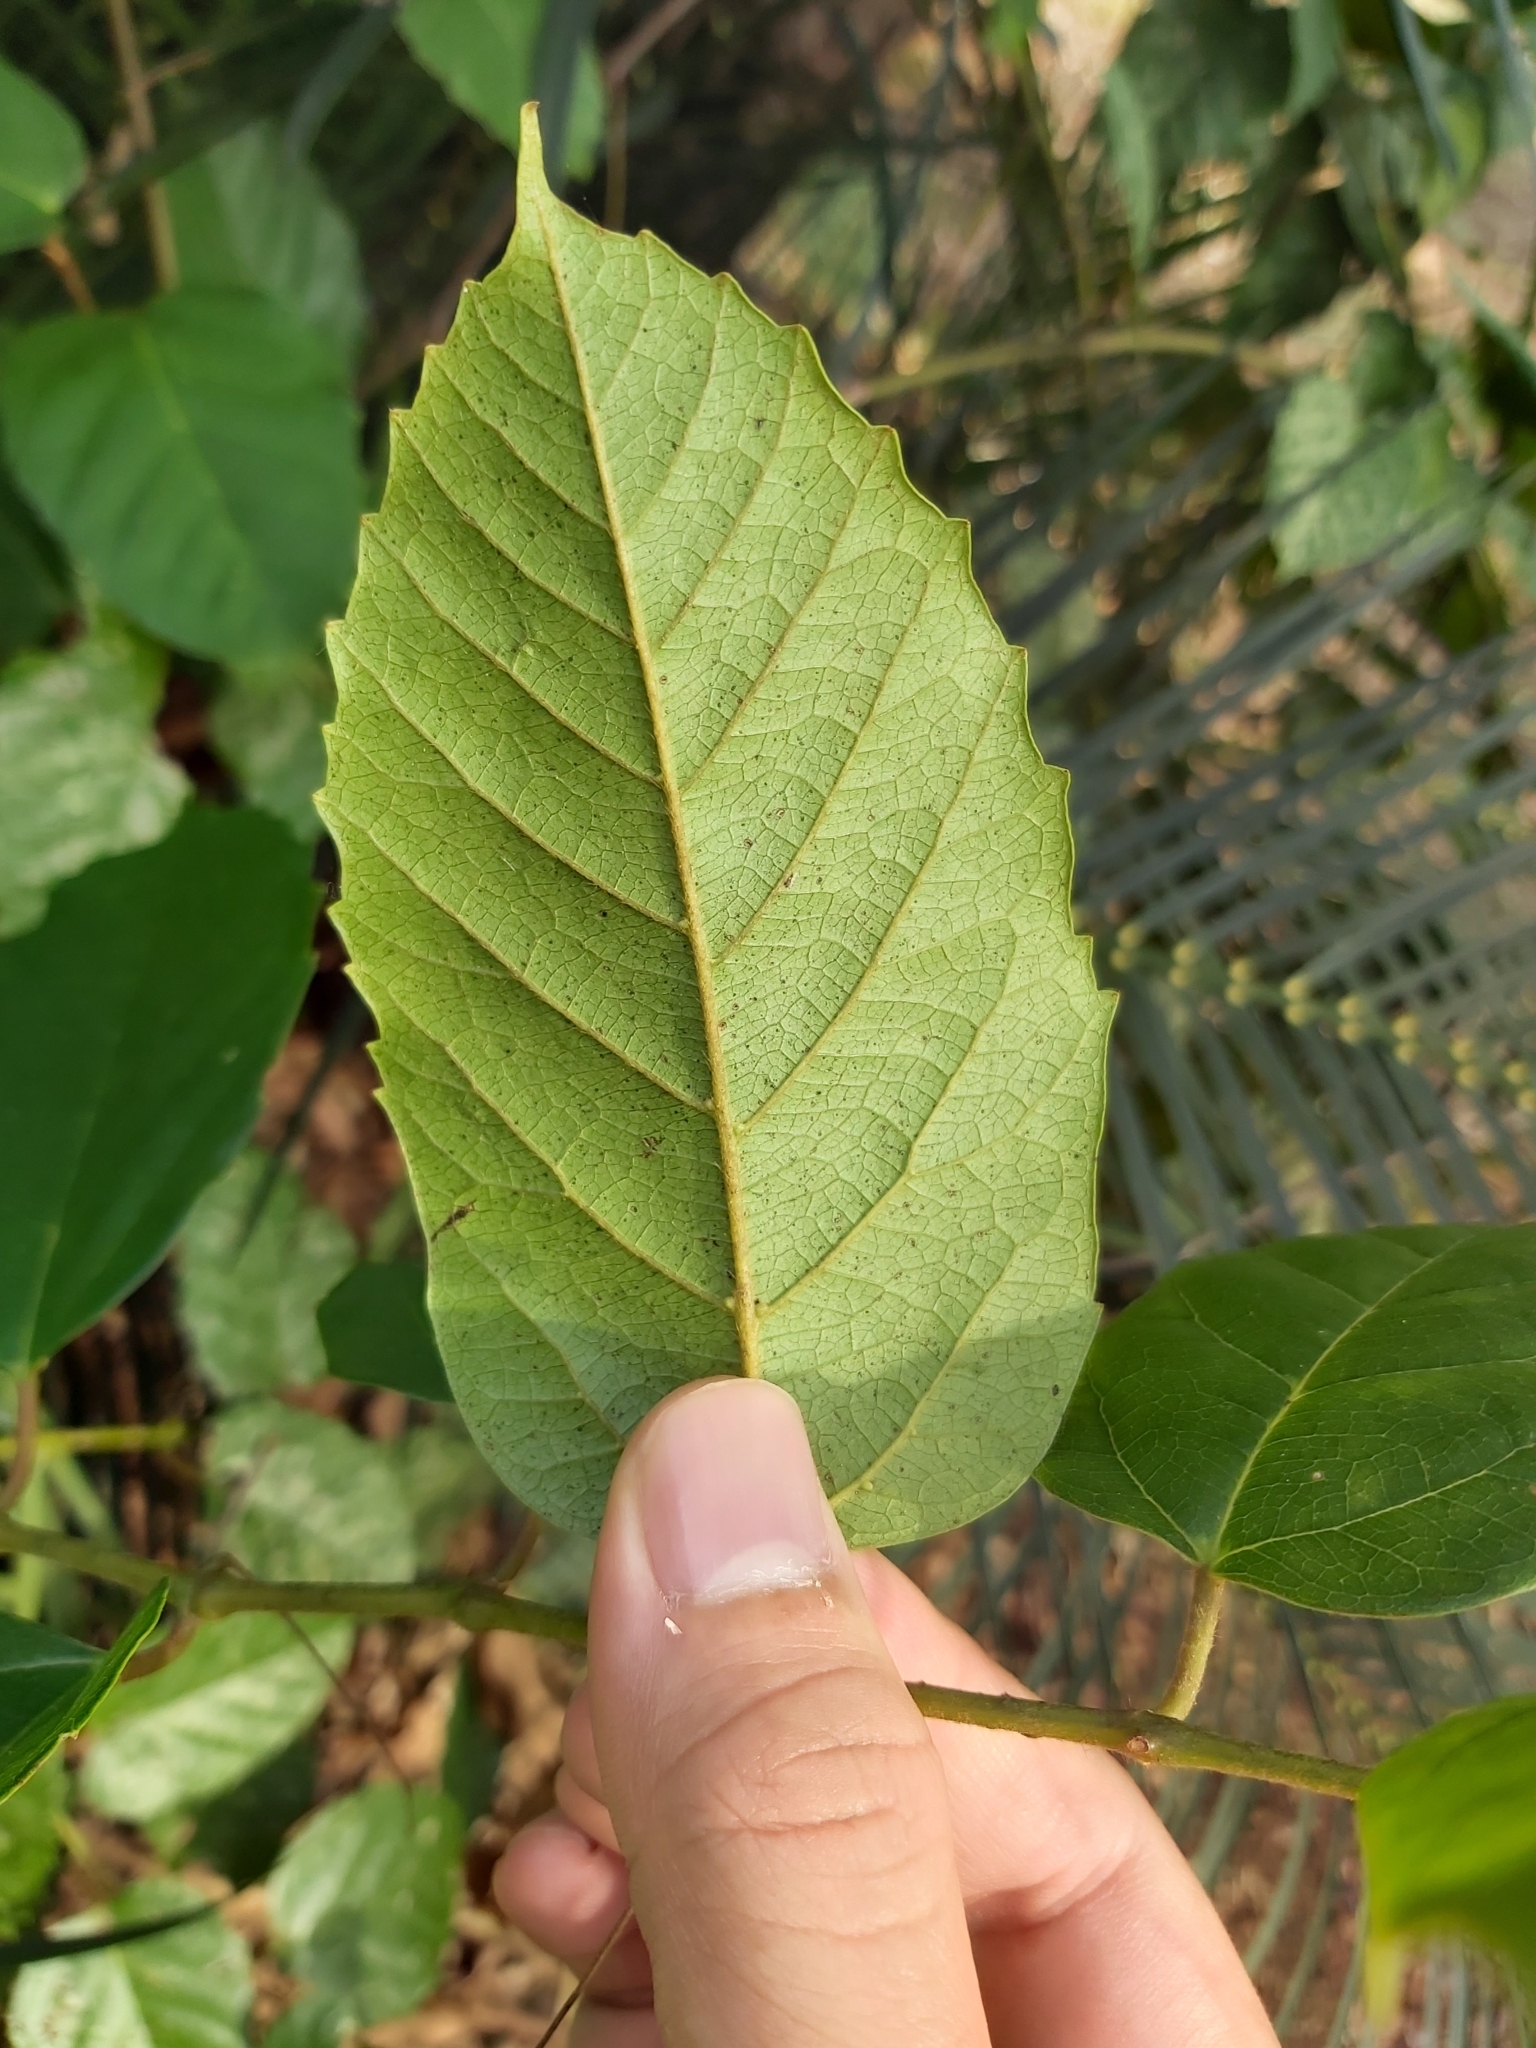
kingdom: Plantae
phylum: Tracheophyta
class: Magnoliopsida
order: Vitales
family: Vitaceae
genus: Cissus
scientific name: Cissus antarctica
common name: Kangaroo vine
